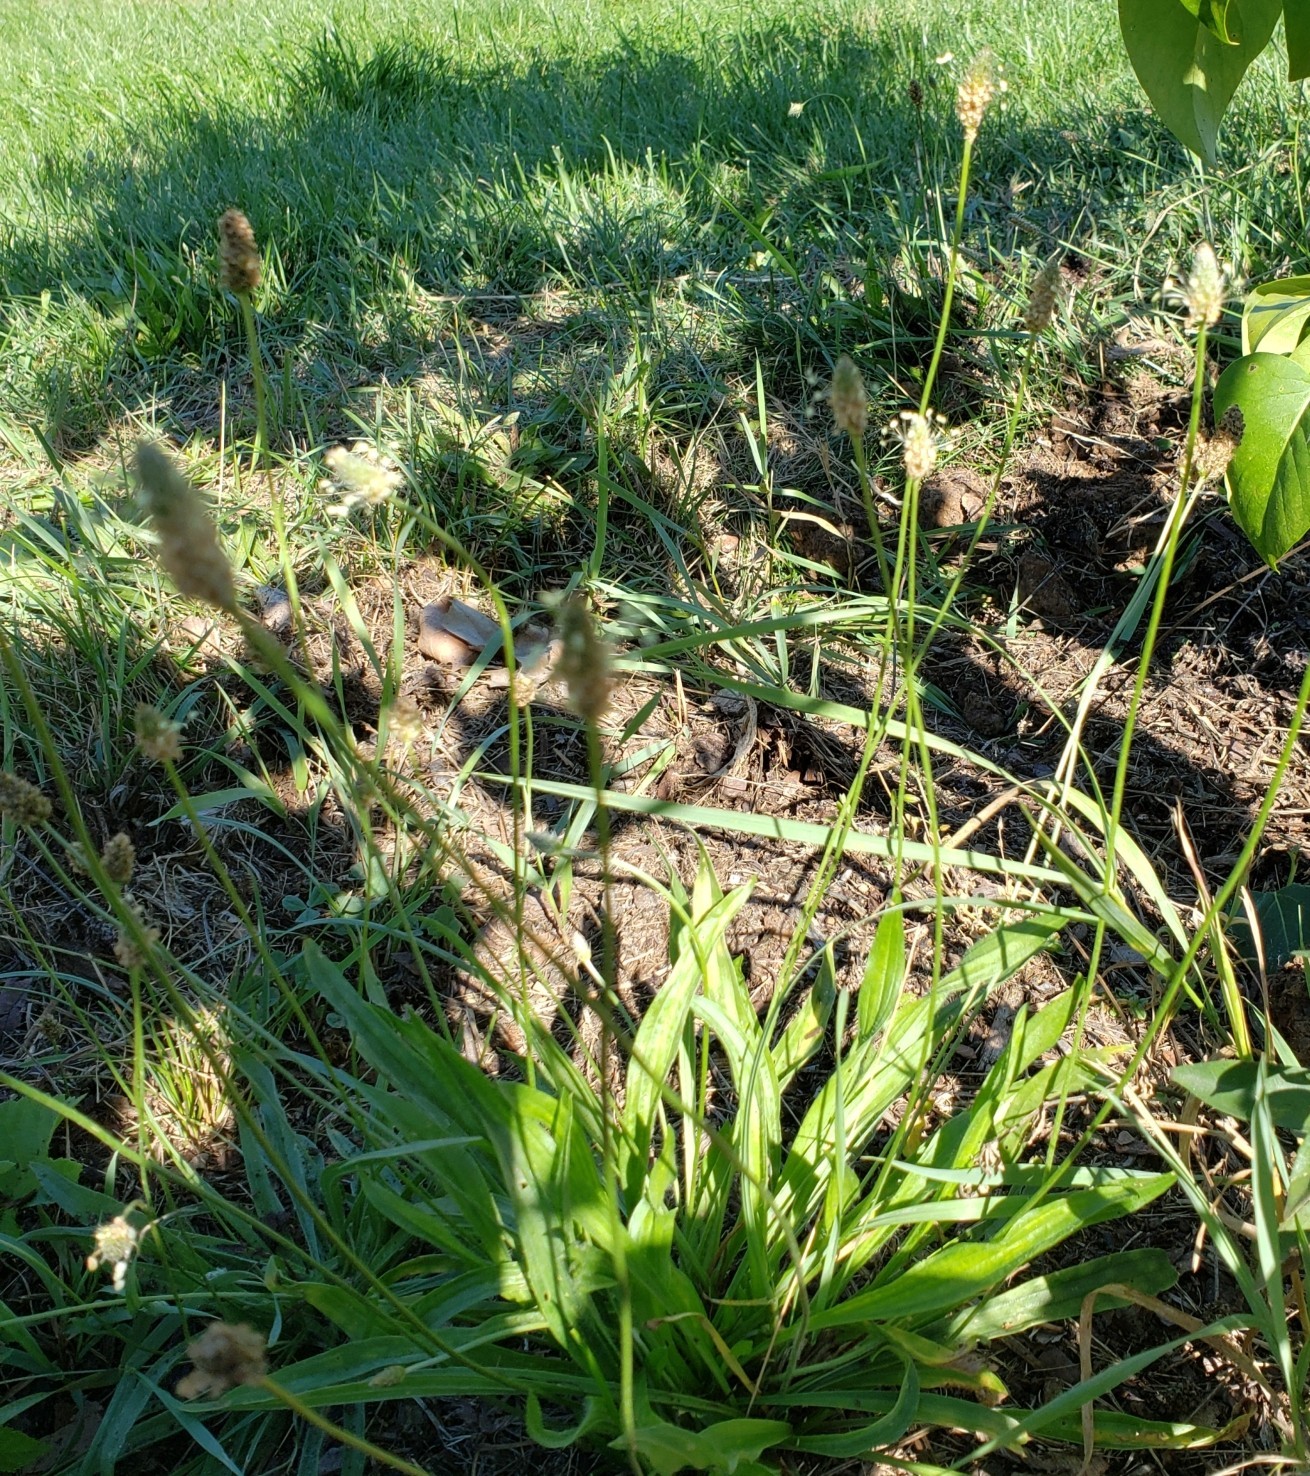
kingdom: Plantae
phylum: Tracheophyta
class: Magnoliopsida
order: Lamiales
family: Plantaginaceae
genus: Plantago
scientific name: Plantago lanceolata
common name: Ribwort plantain
